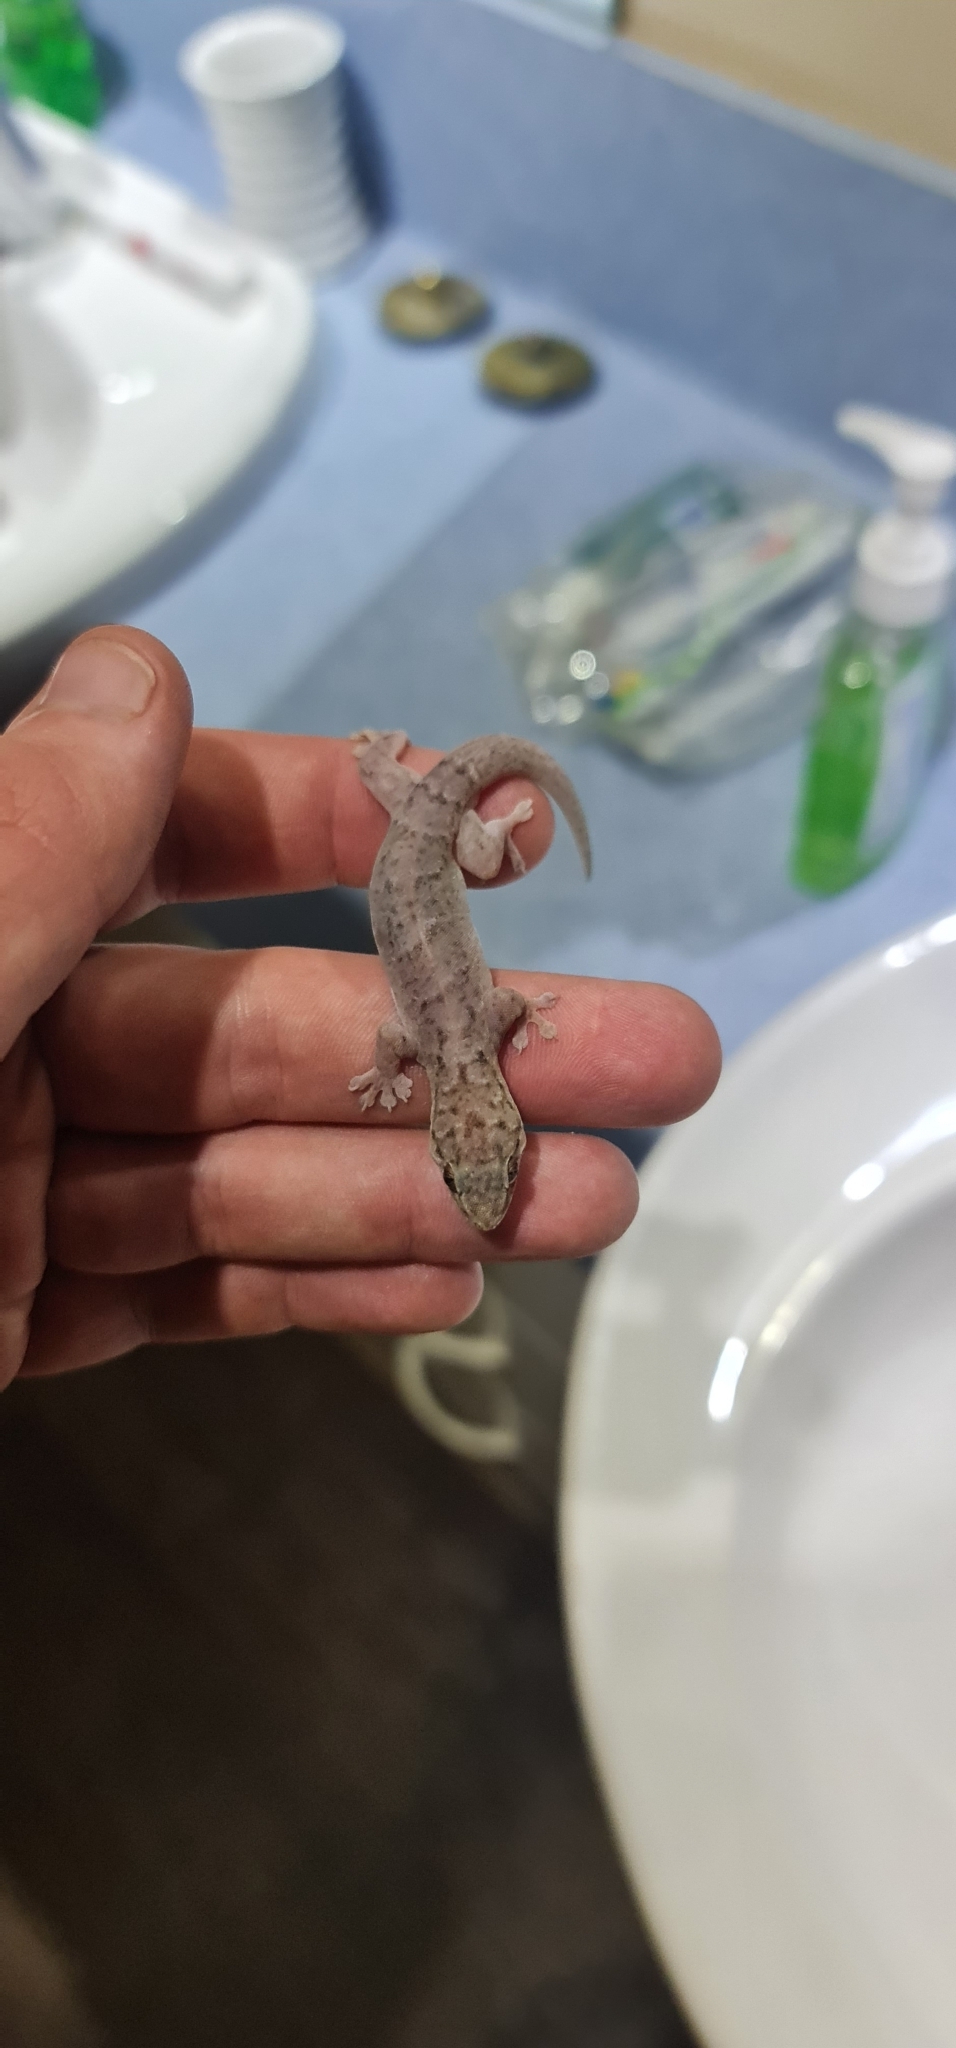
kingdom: Animalia
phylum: Chordata
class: Squamata
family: Gekkonidae
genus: Gehyra
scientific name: Gehyra australis
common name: House gecko
